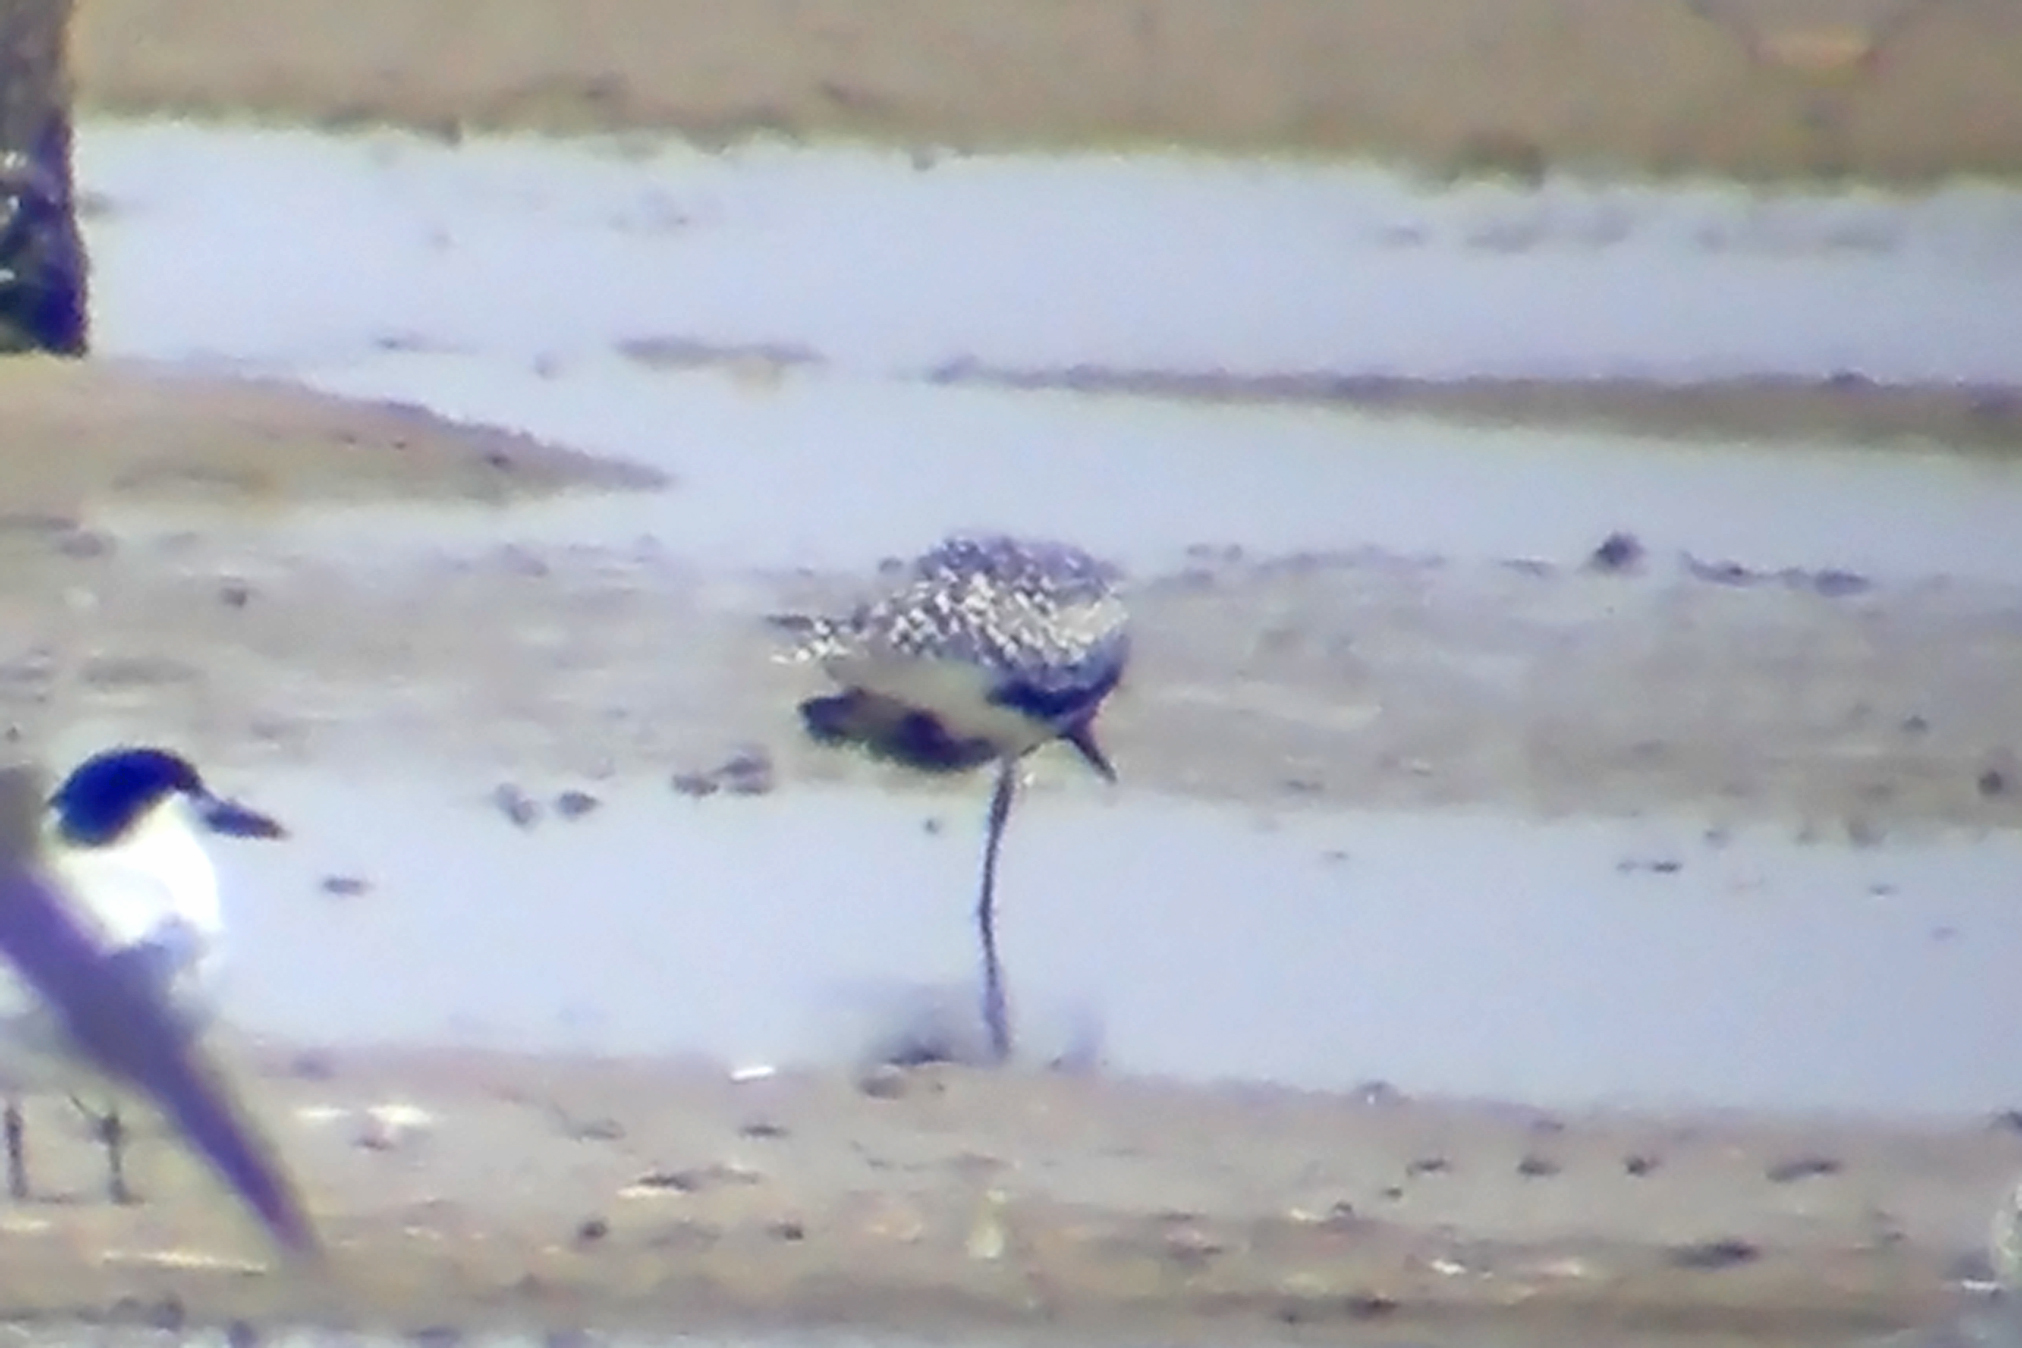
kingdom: Animalia
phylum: Chordata
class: Aves
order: Charadriiformes
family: Charadriidae
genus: Pluvialis
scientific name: Pluvialis squatarola
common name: Grey plover
